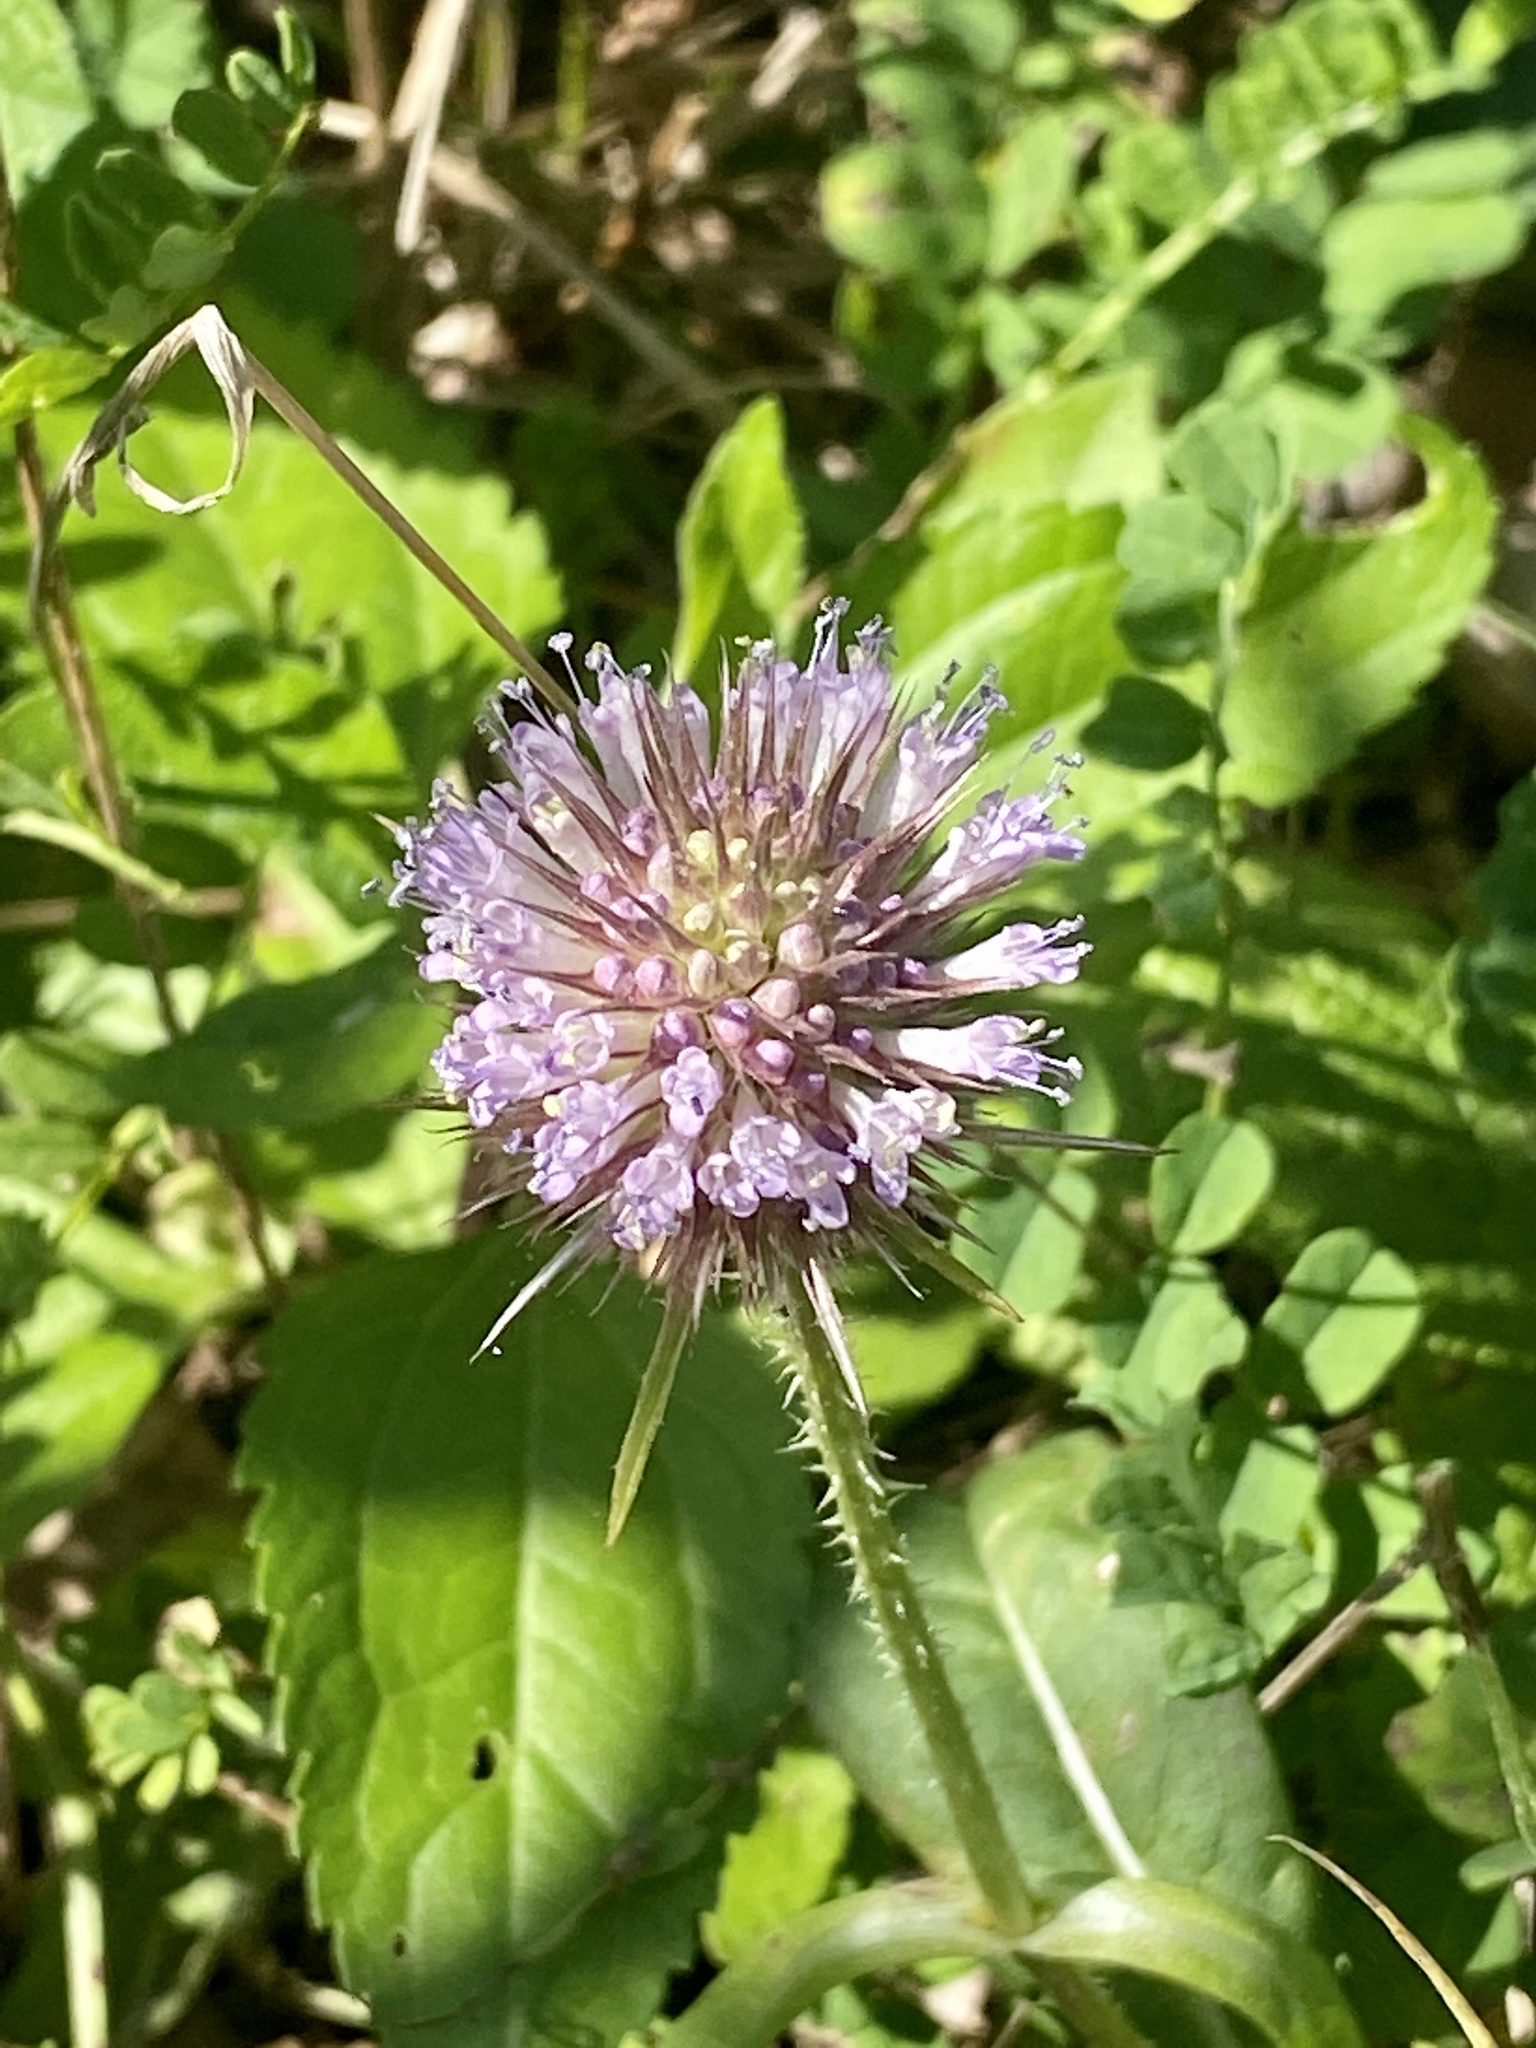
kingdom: Plantae
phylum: Tracheophyta
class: Magnoliopsida
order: Dipsacales
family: Caprifoliaceae
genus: Dipsacus
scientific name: Dipsacus fullonum
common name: Teasel
